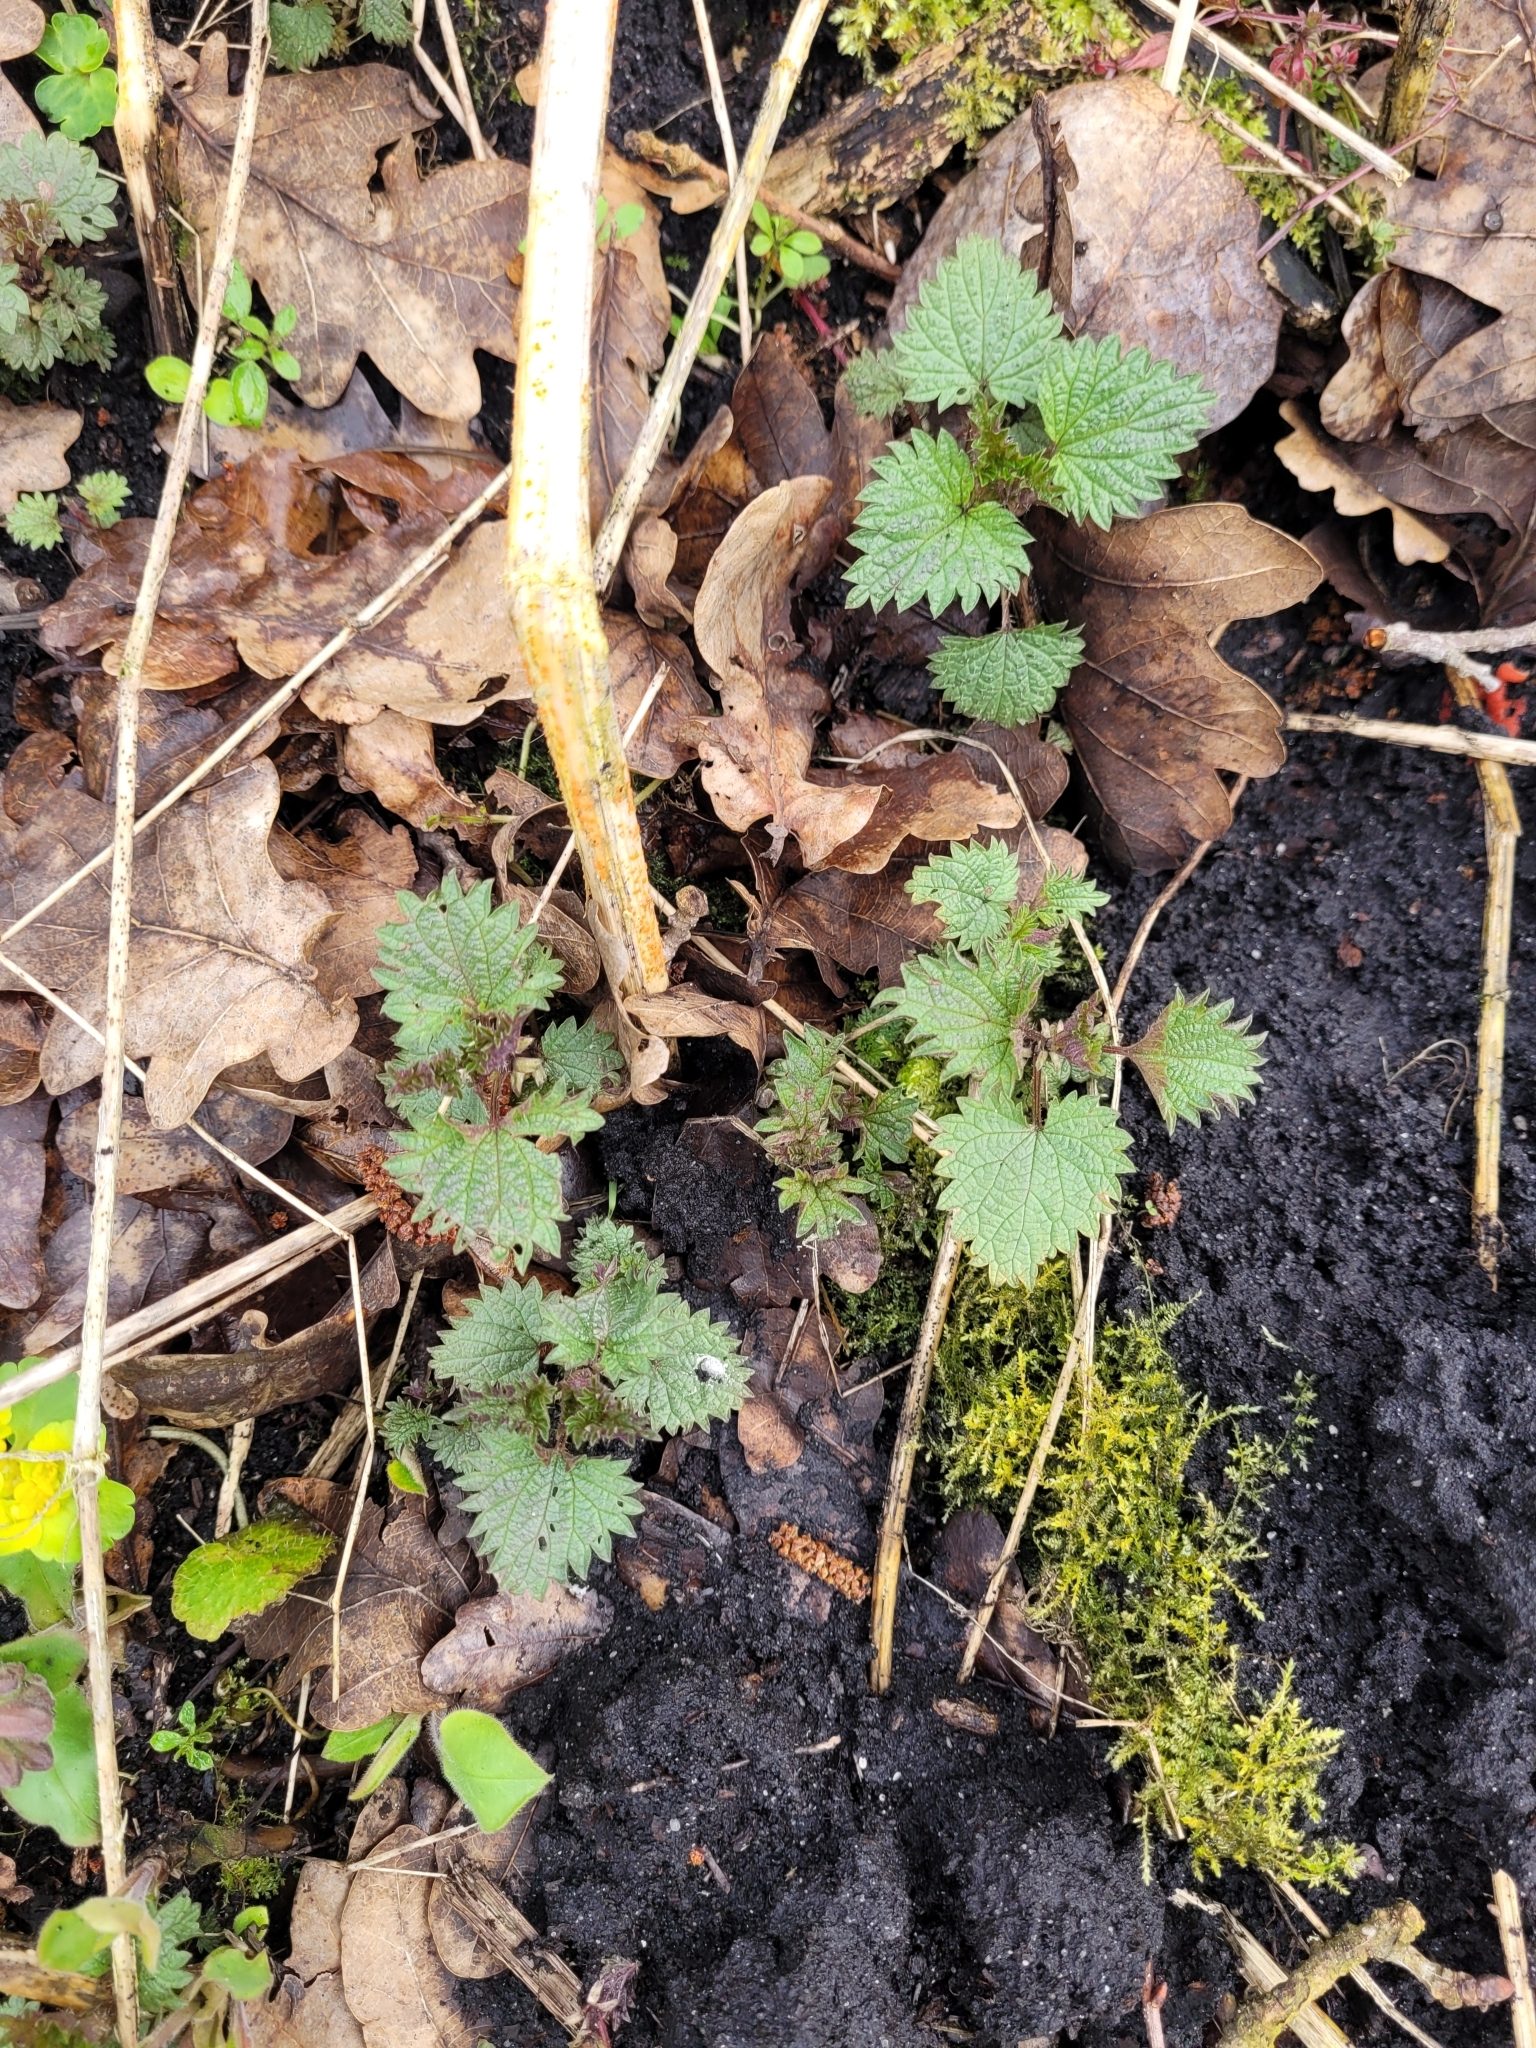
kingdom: Plantae
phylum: Tracheophyta
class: Magnoliopsida
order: Rosales
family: Urticaceae
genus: Urtica
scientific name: Urtica dioica
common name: Common nettle
